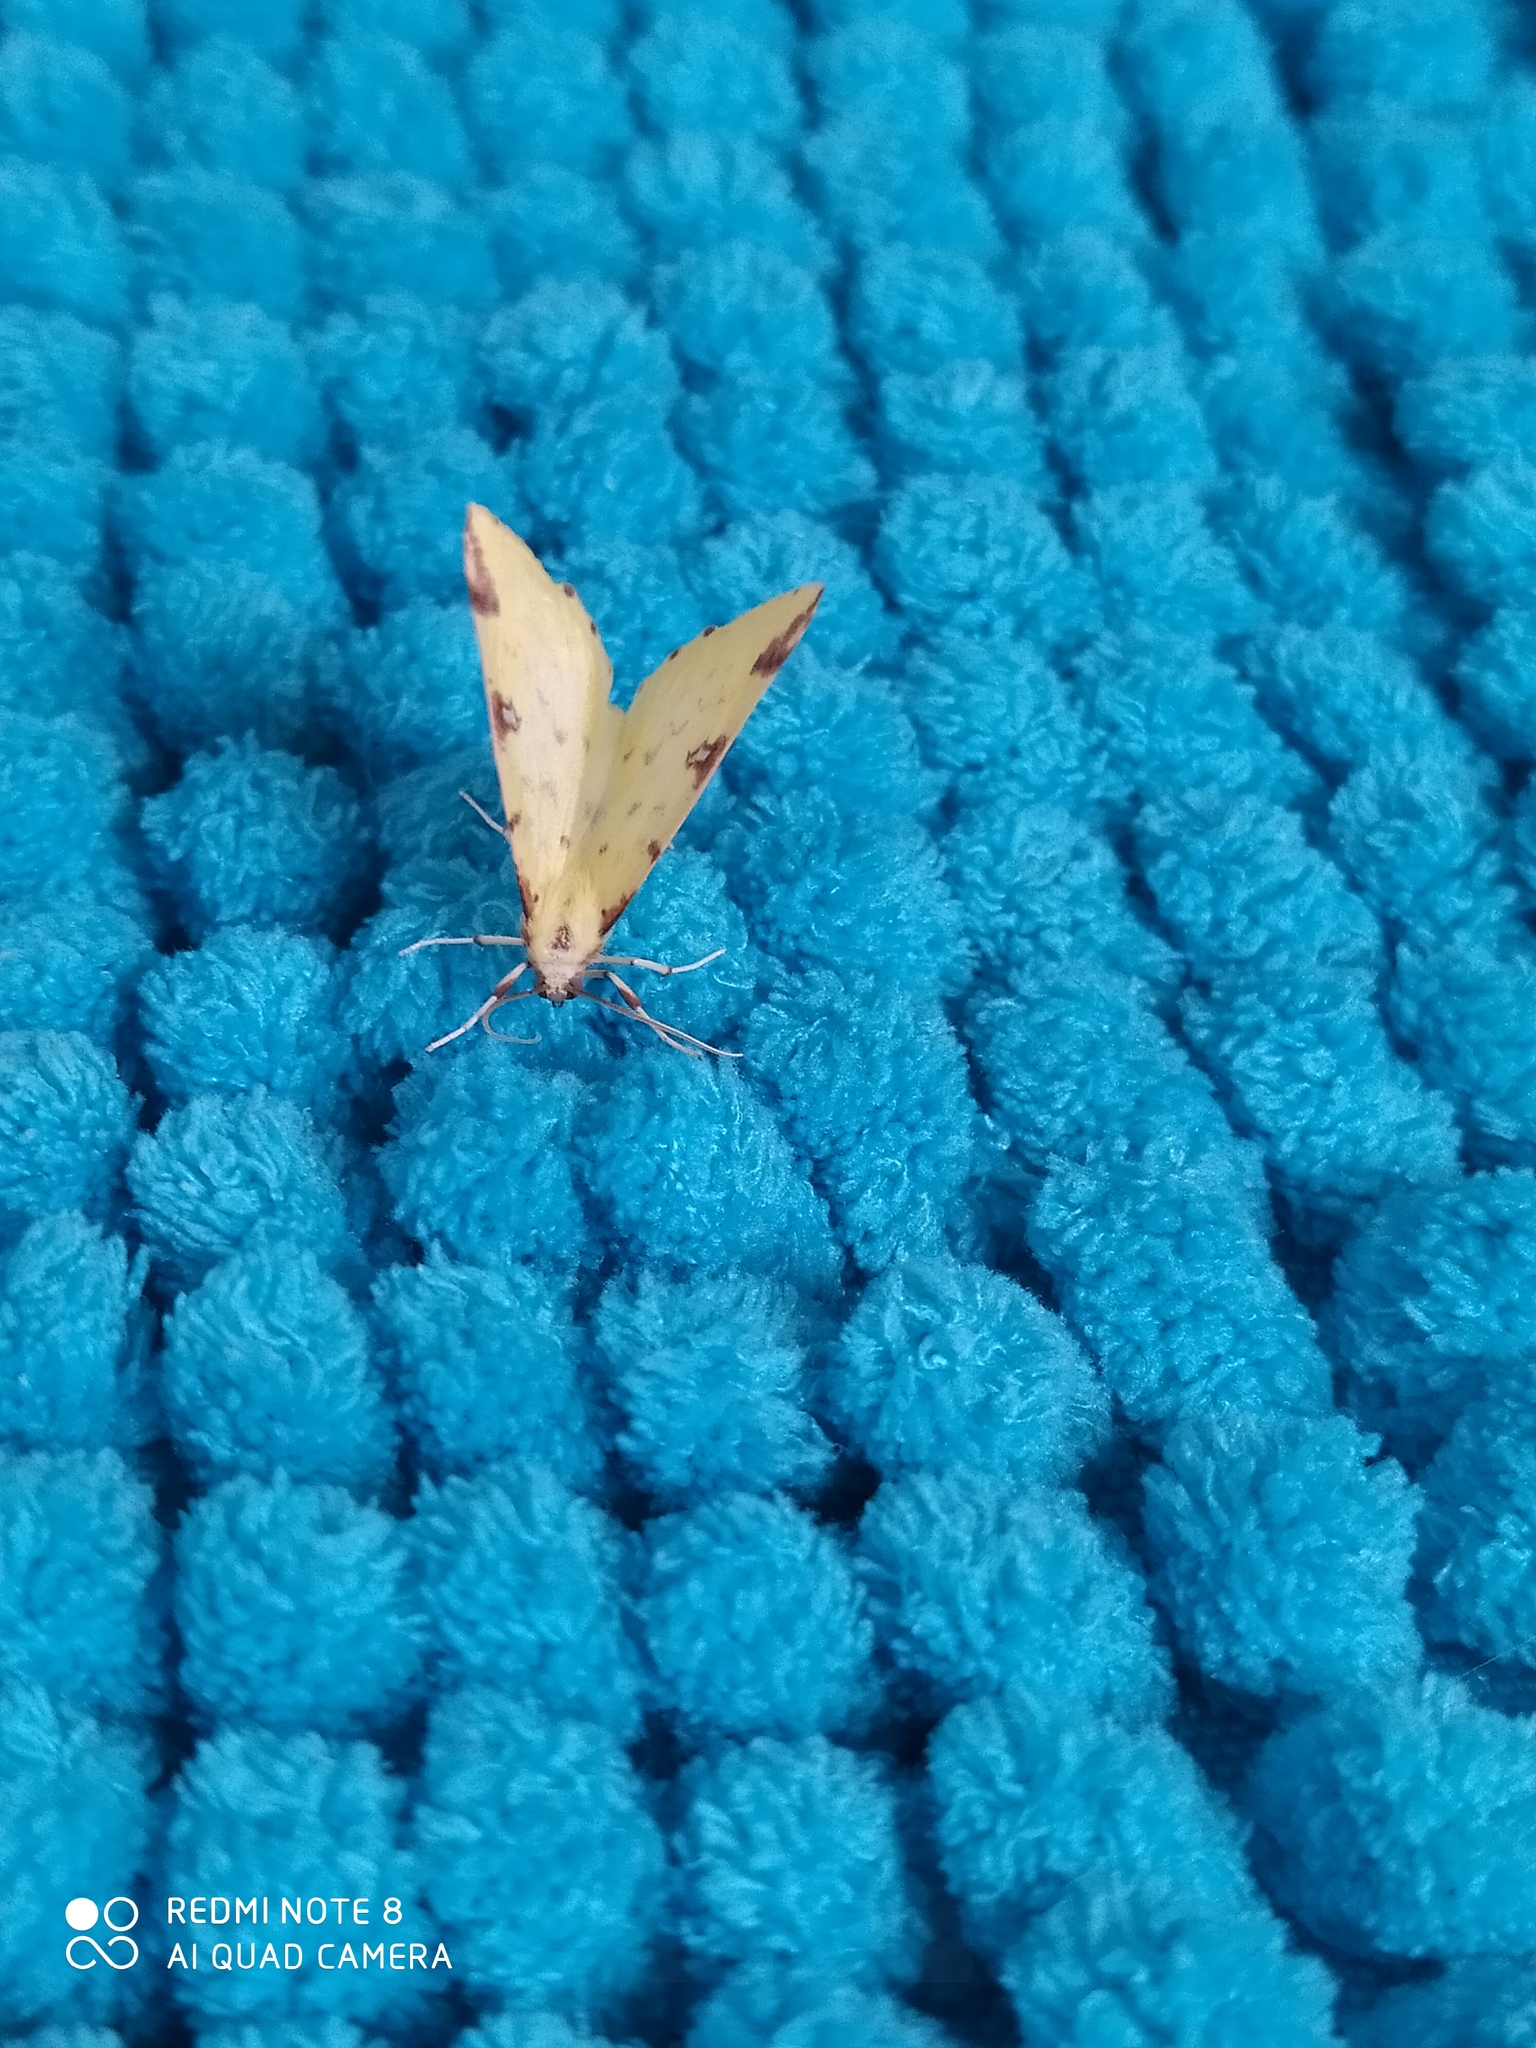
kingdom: Animalia
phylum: Arthropoda
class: Insecta
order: Lepidoptera
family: Geometridae
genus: Opisthograptis
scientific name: Opisthograptis luteolata
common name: Brimstone moth
